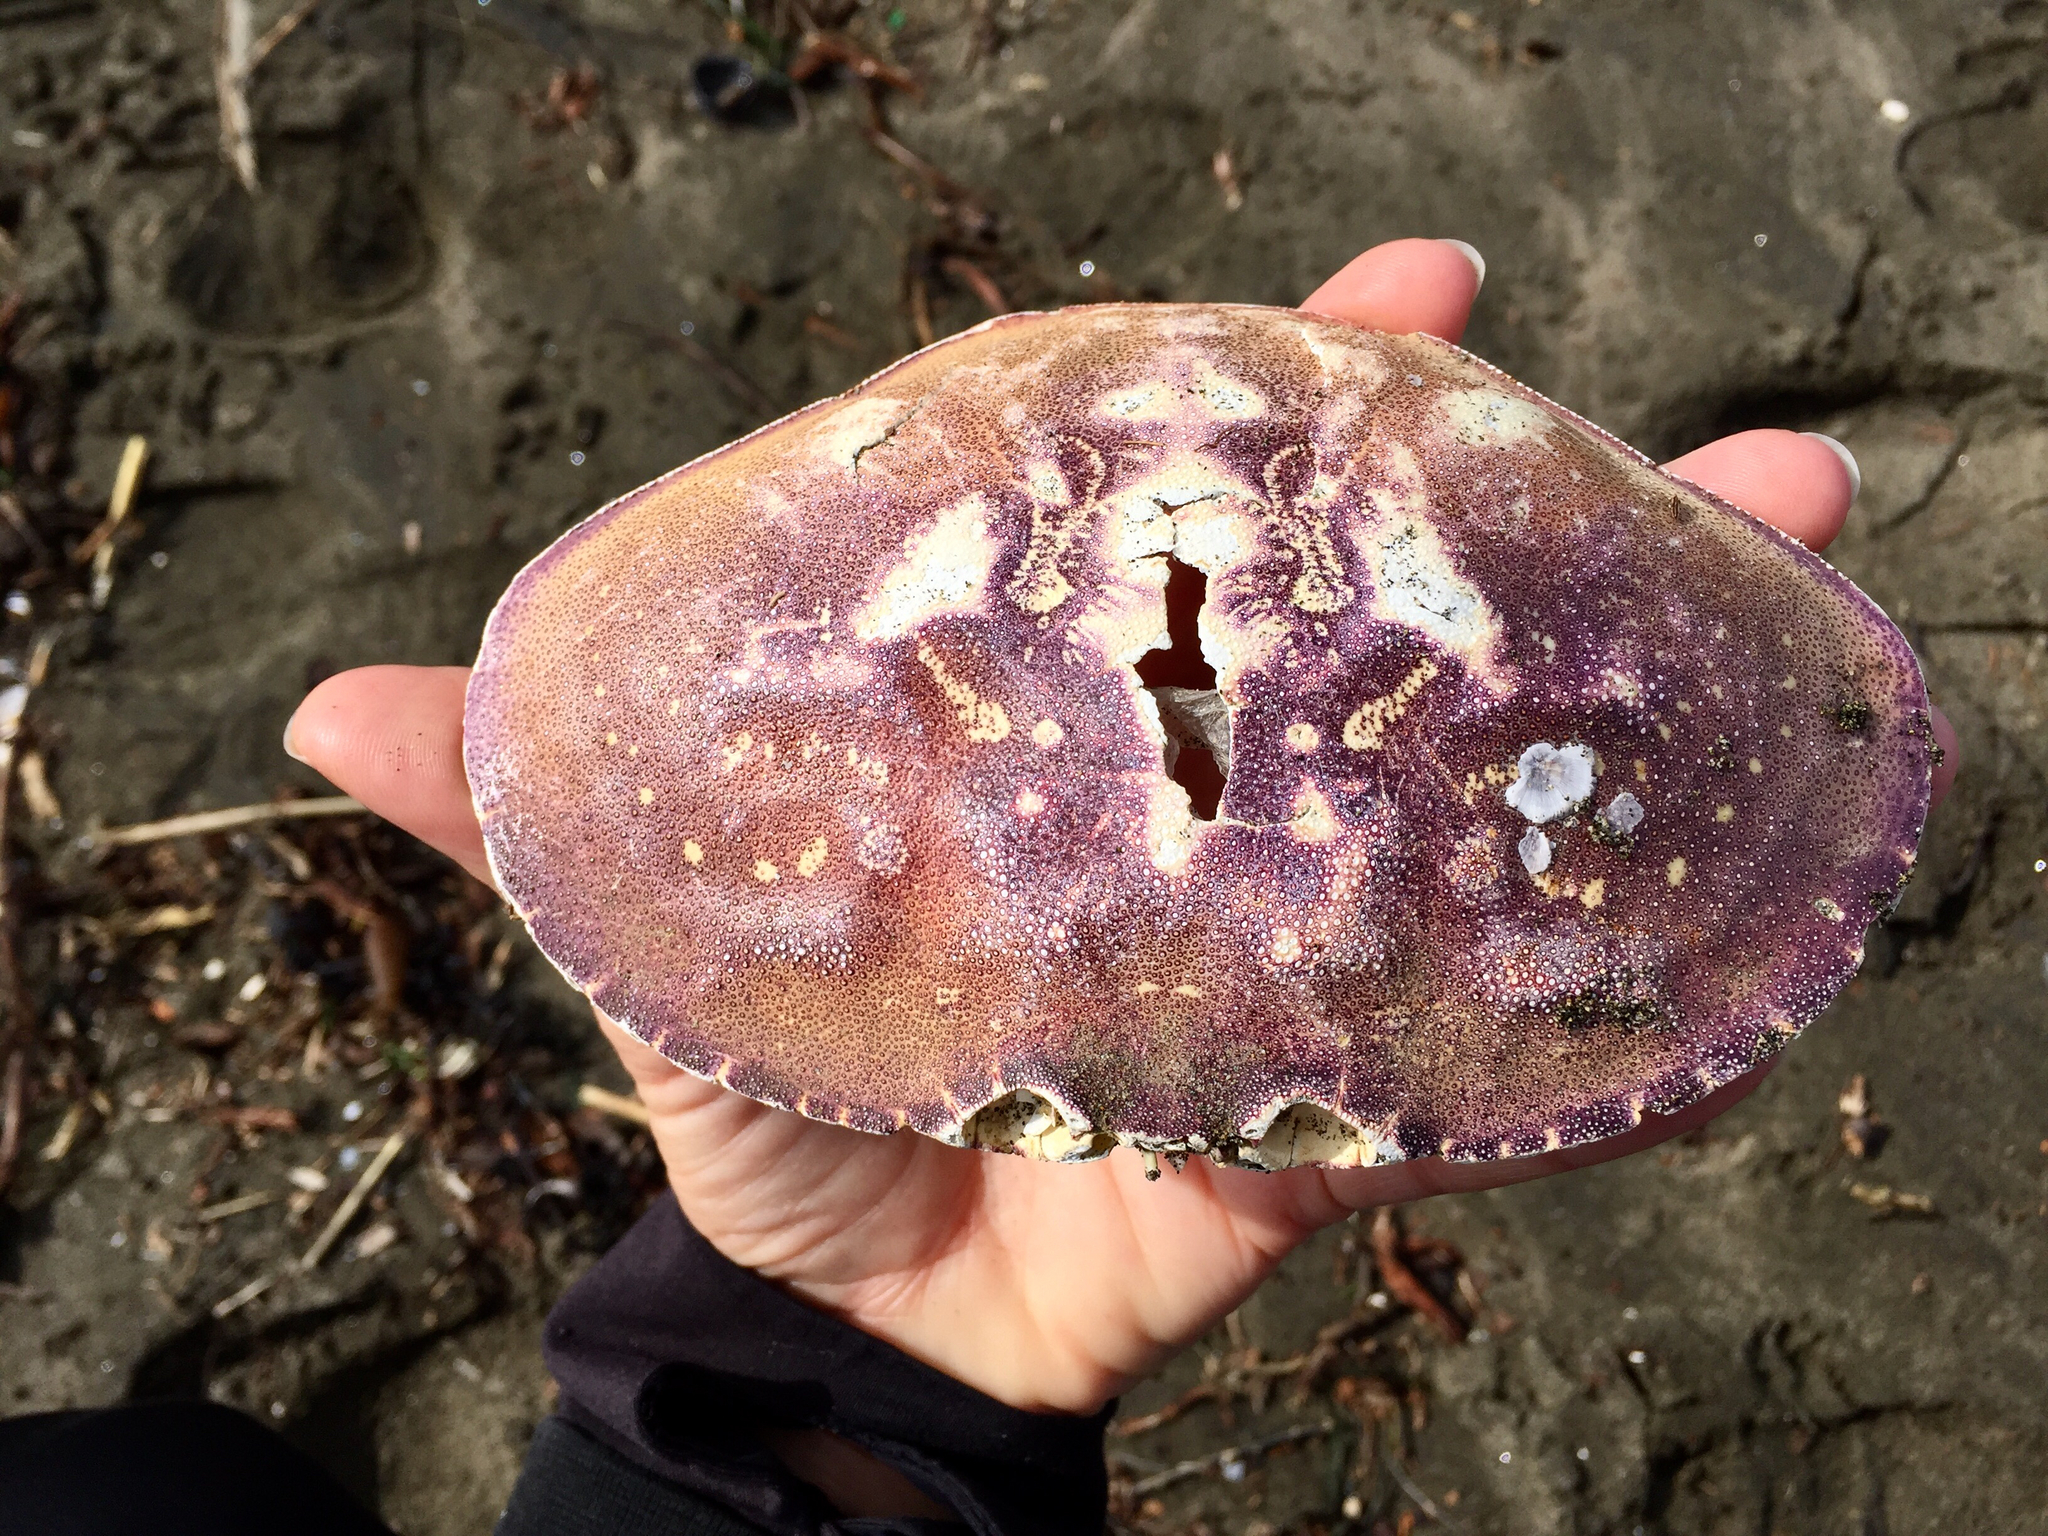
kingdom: Animalia
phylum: Arthropoda
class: Malacostraca
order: Decapoda
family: Cancridae
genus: Metacarcinus
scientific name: Metacarcinus magister
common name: Californian crab
